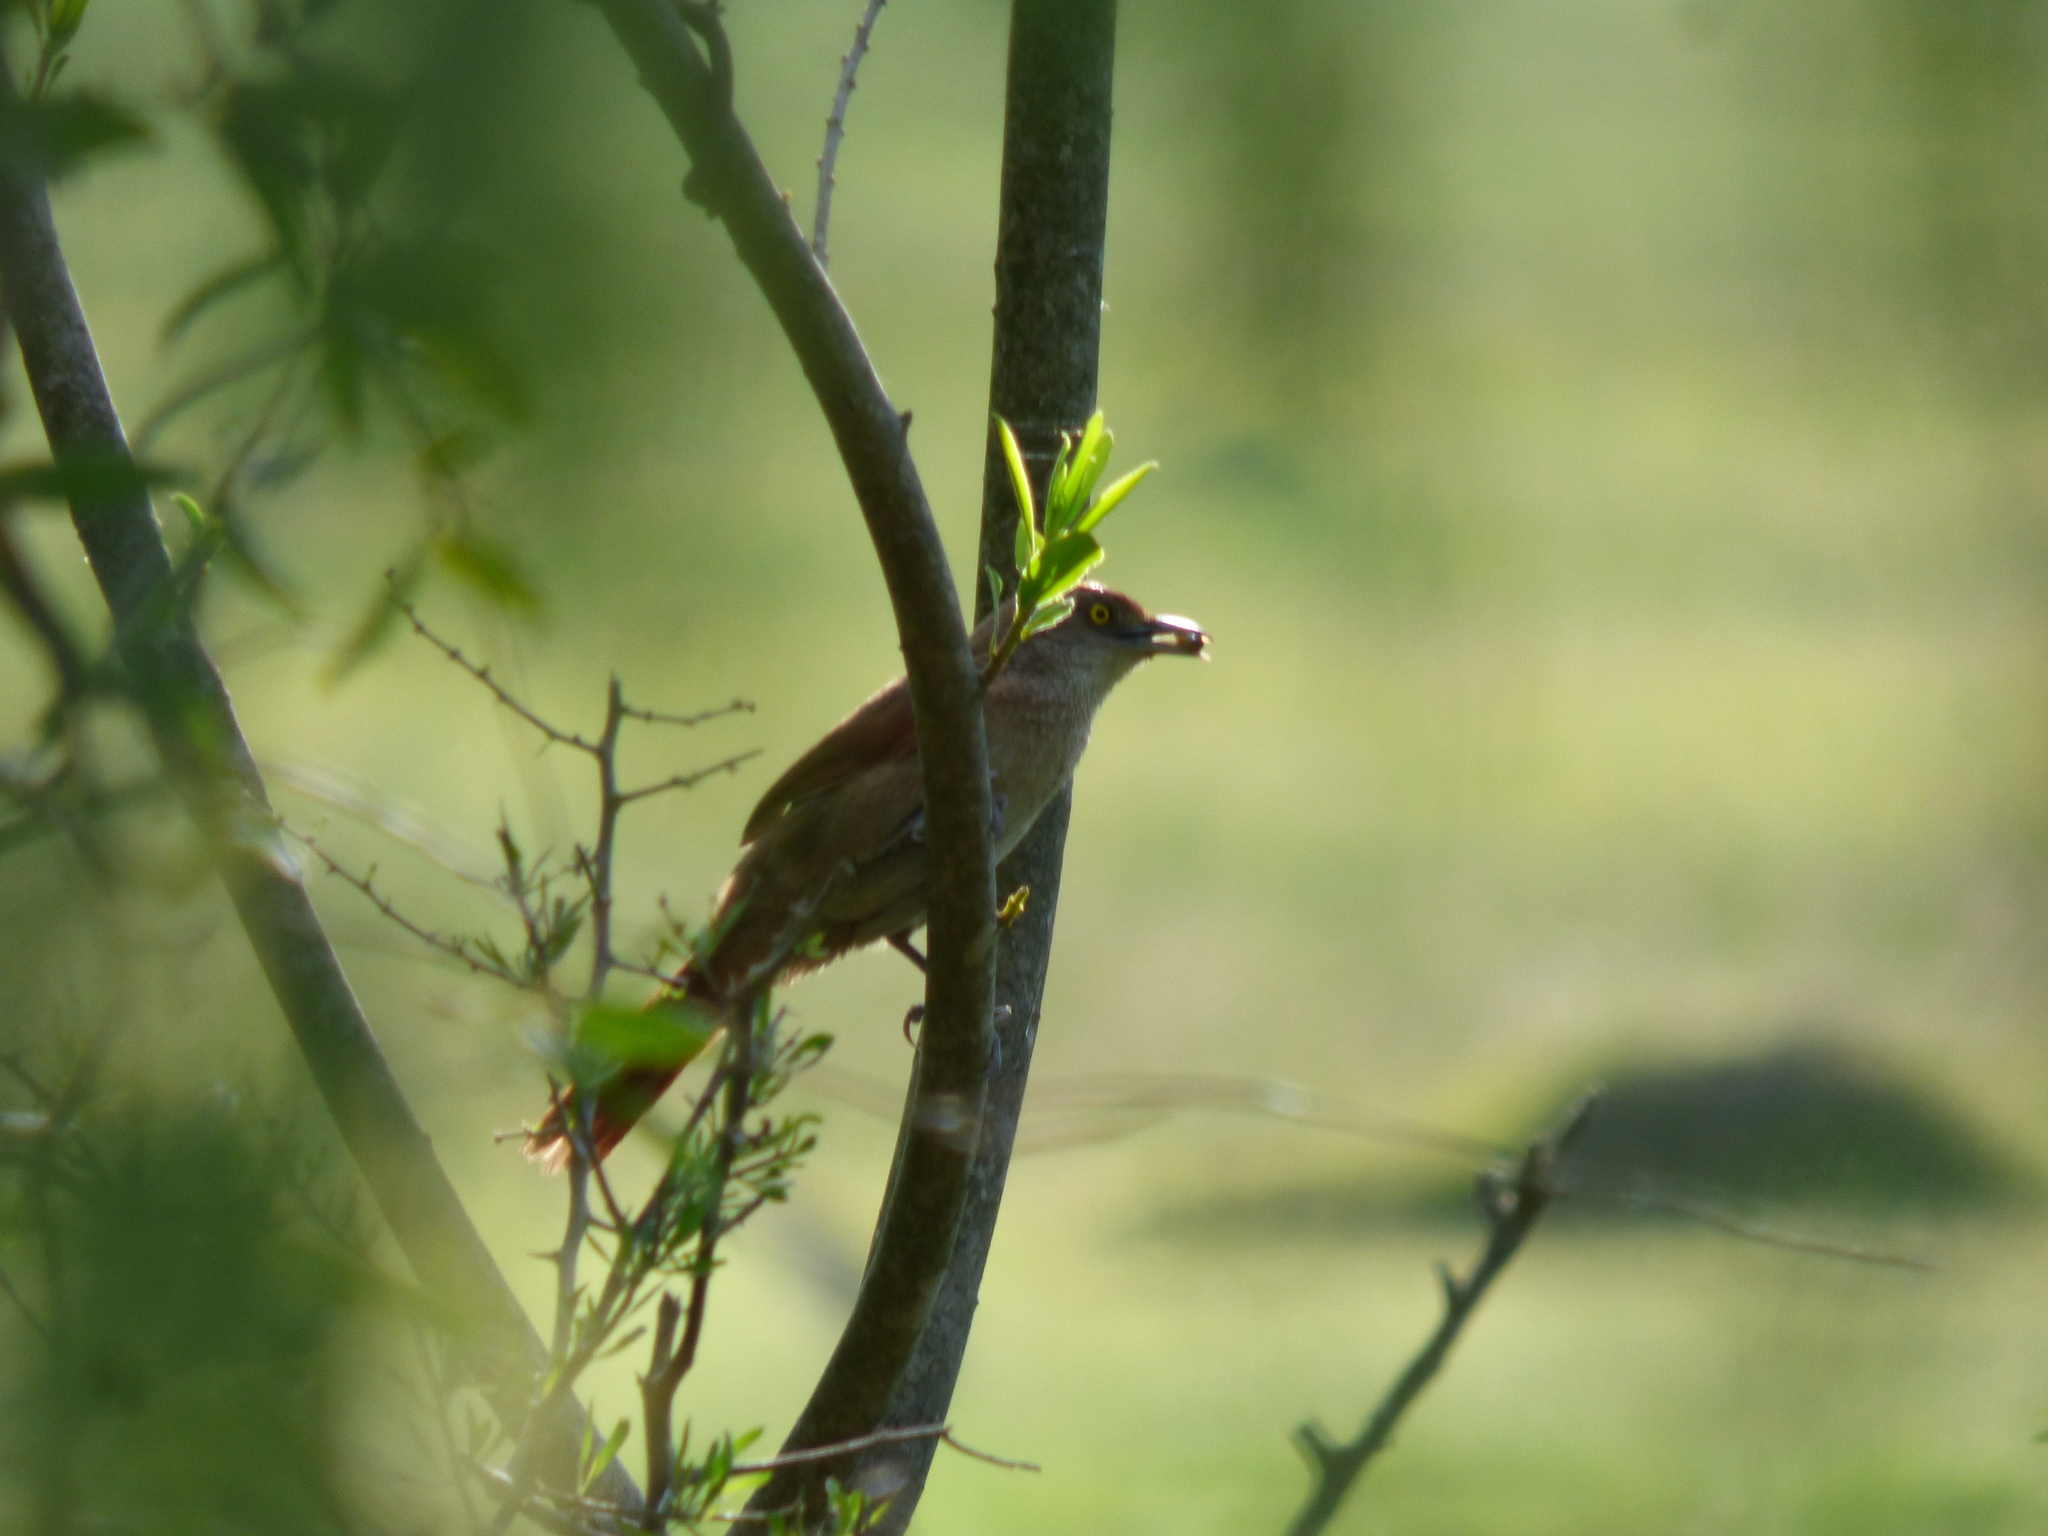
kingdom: Animalia
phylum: Chordata
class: Aves
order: Passeriformes
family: Furnariidae
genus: Phacellodomus
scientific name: Phacellodomus ruber
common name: Greater thornbird
